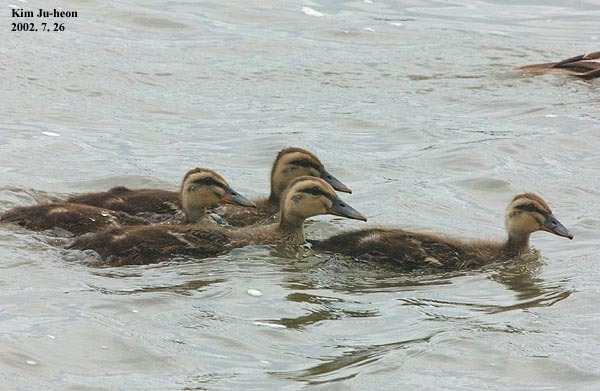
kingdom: Animalia
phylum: Chordata
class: Aves
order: Anseriformes
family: Anatidae
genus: Anas
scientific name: Anas zonorhyncha
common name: Eastern spot-billed duck
